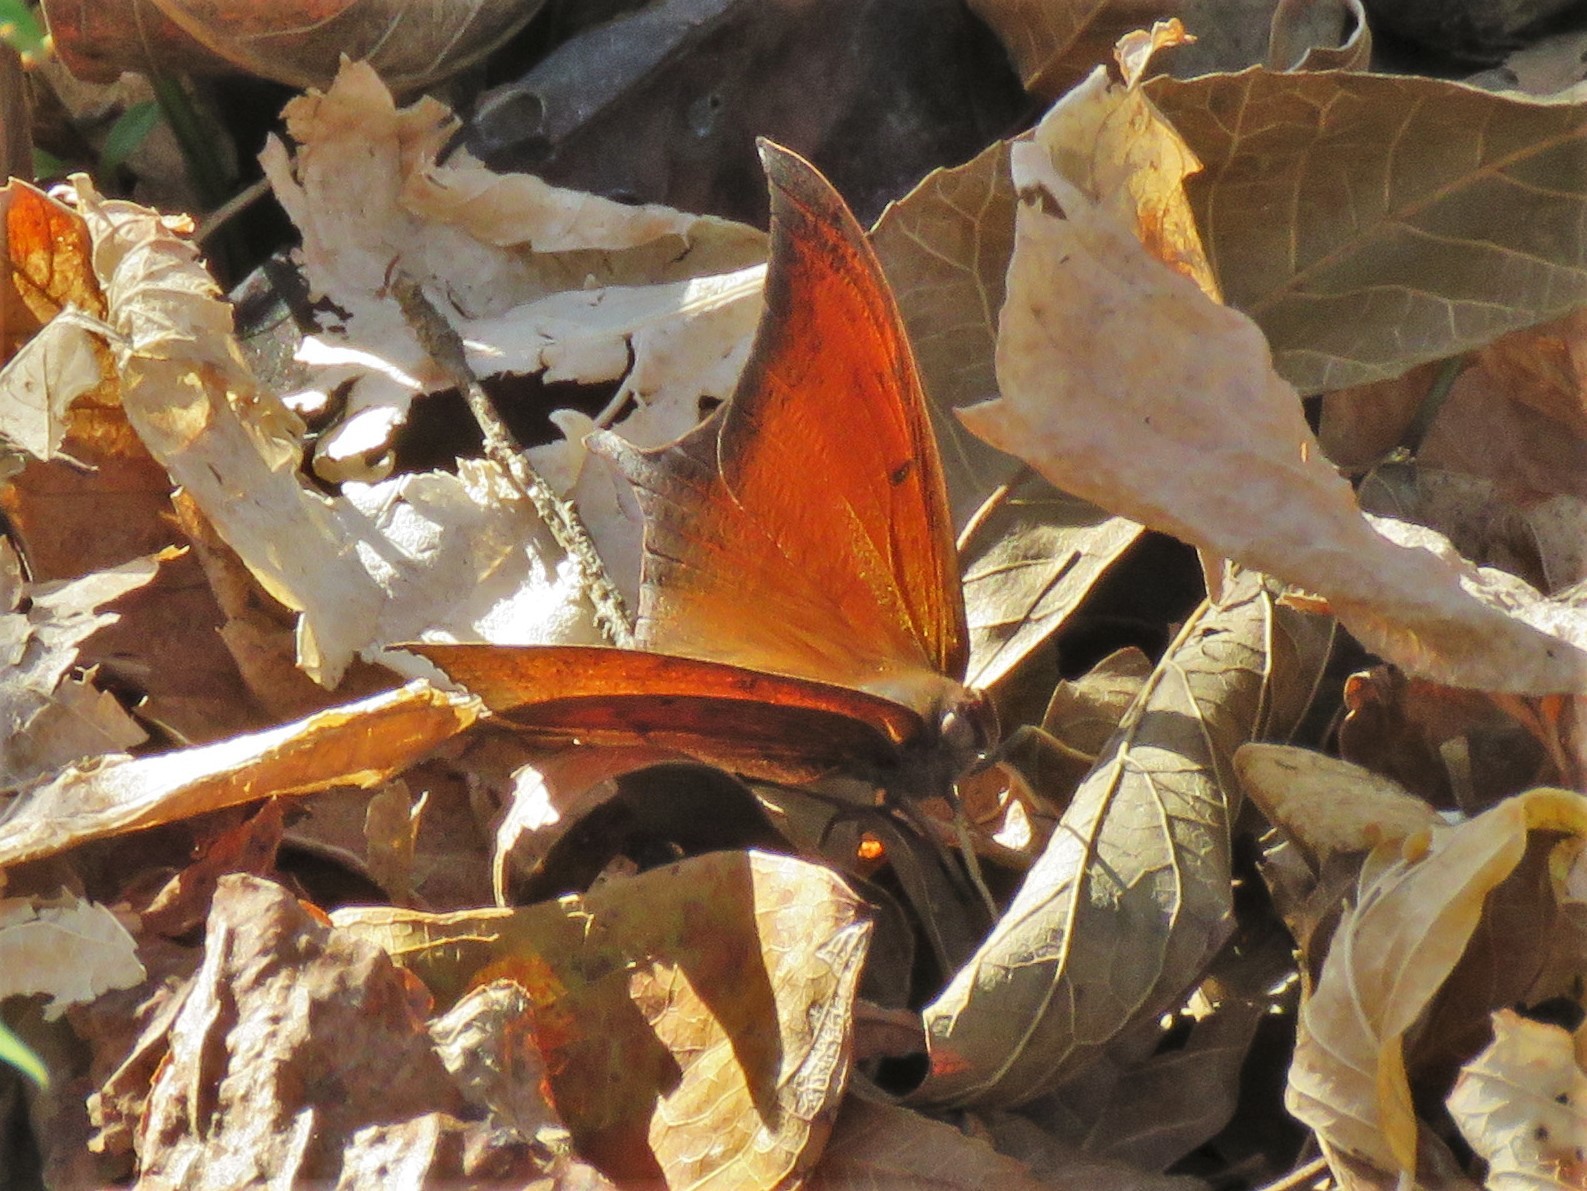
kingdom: Animalia
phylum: Arthropoda
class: Insecta
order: Lepidoptera
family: Nymphalidae
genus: Anaea
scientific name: Anaea andria
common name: Goatweed leafwing
